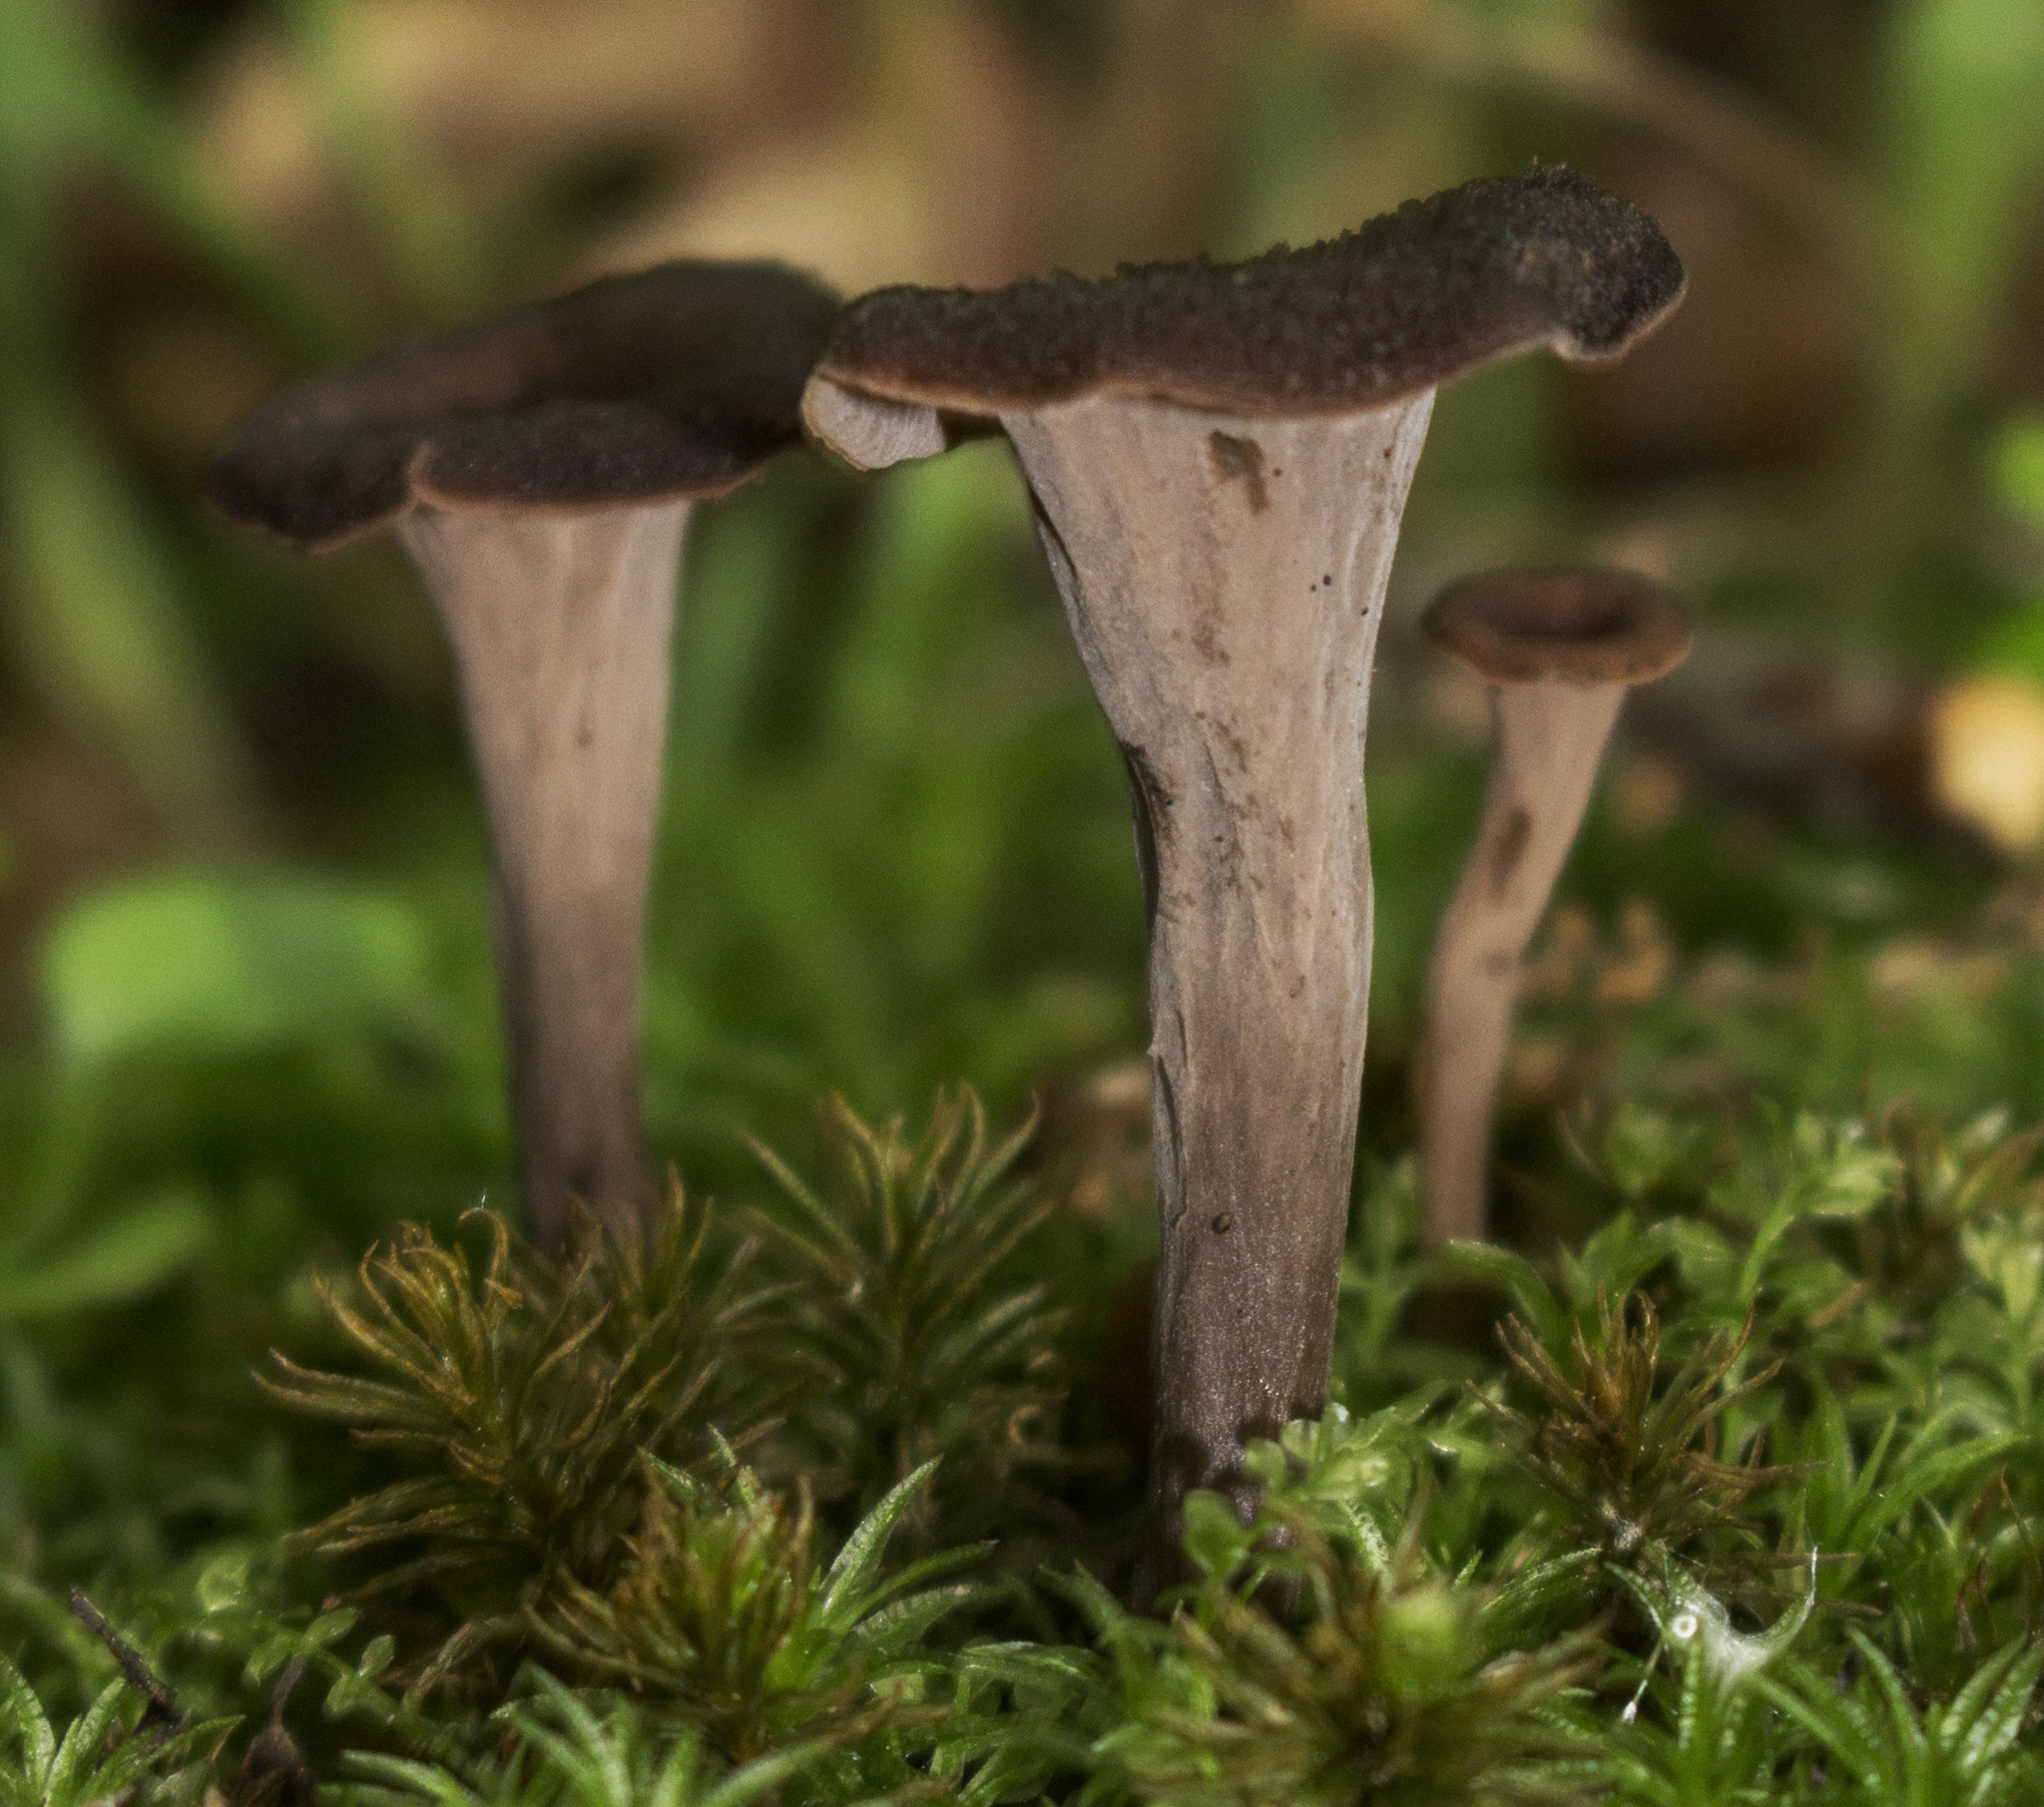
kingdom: Fungi
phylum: Basidiomycota
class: Agaricomycetes
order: Cantharellales
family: Hydnaceae
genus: Craterellus
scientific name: Craterellus cornucopioides
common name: Horn of plenty
